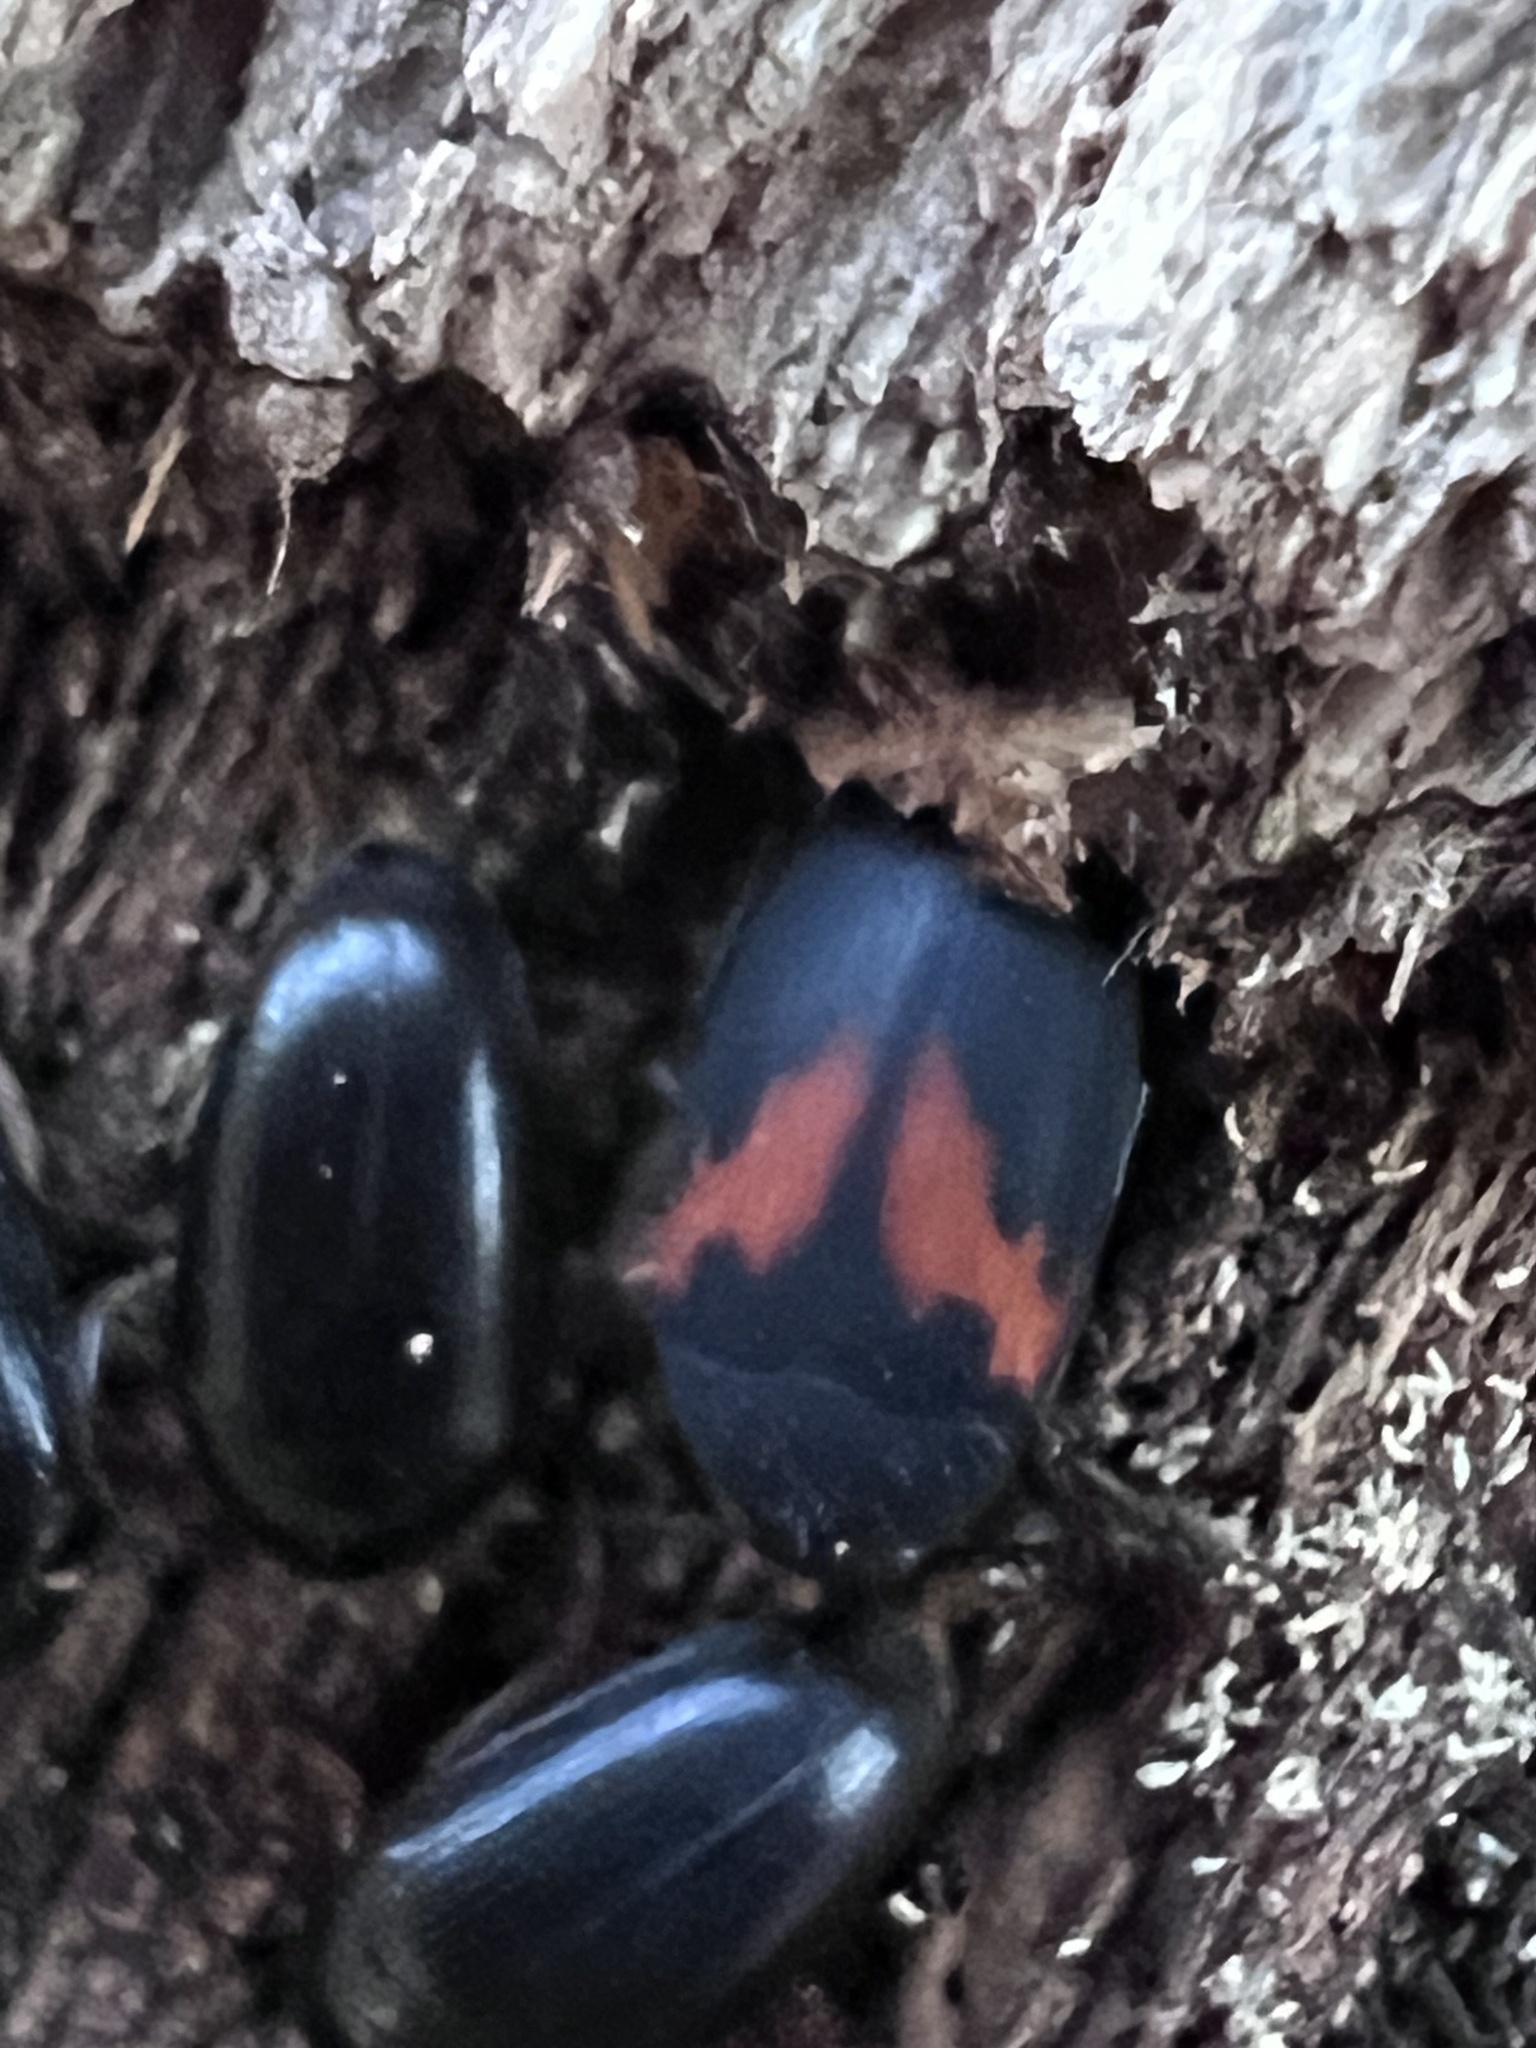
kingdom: Animalia
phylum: Arthropoda
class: Insecta
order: Coleoptera
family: Tenebrionidae
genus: Platydema
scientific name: Platydema elliptica
